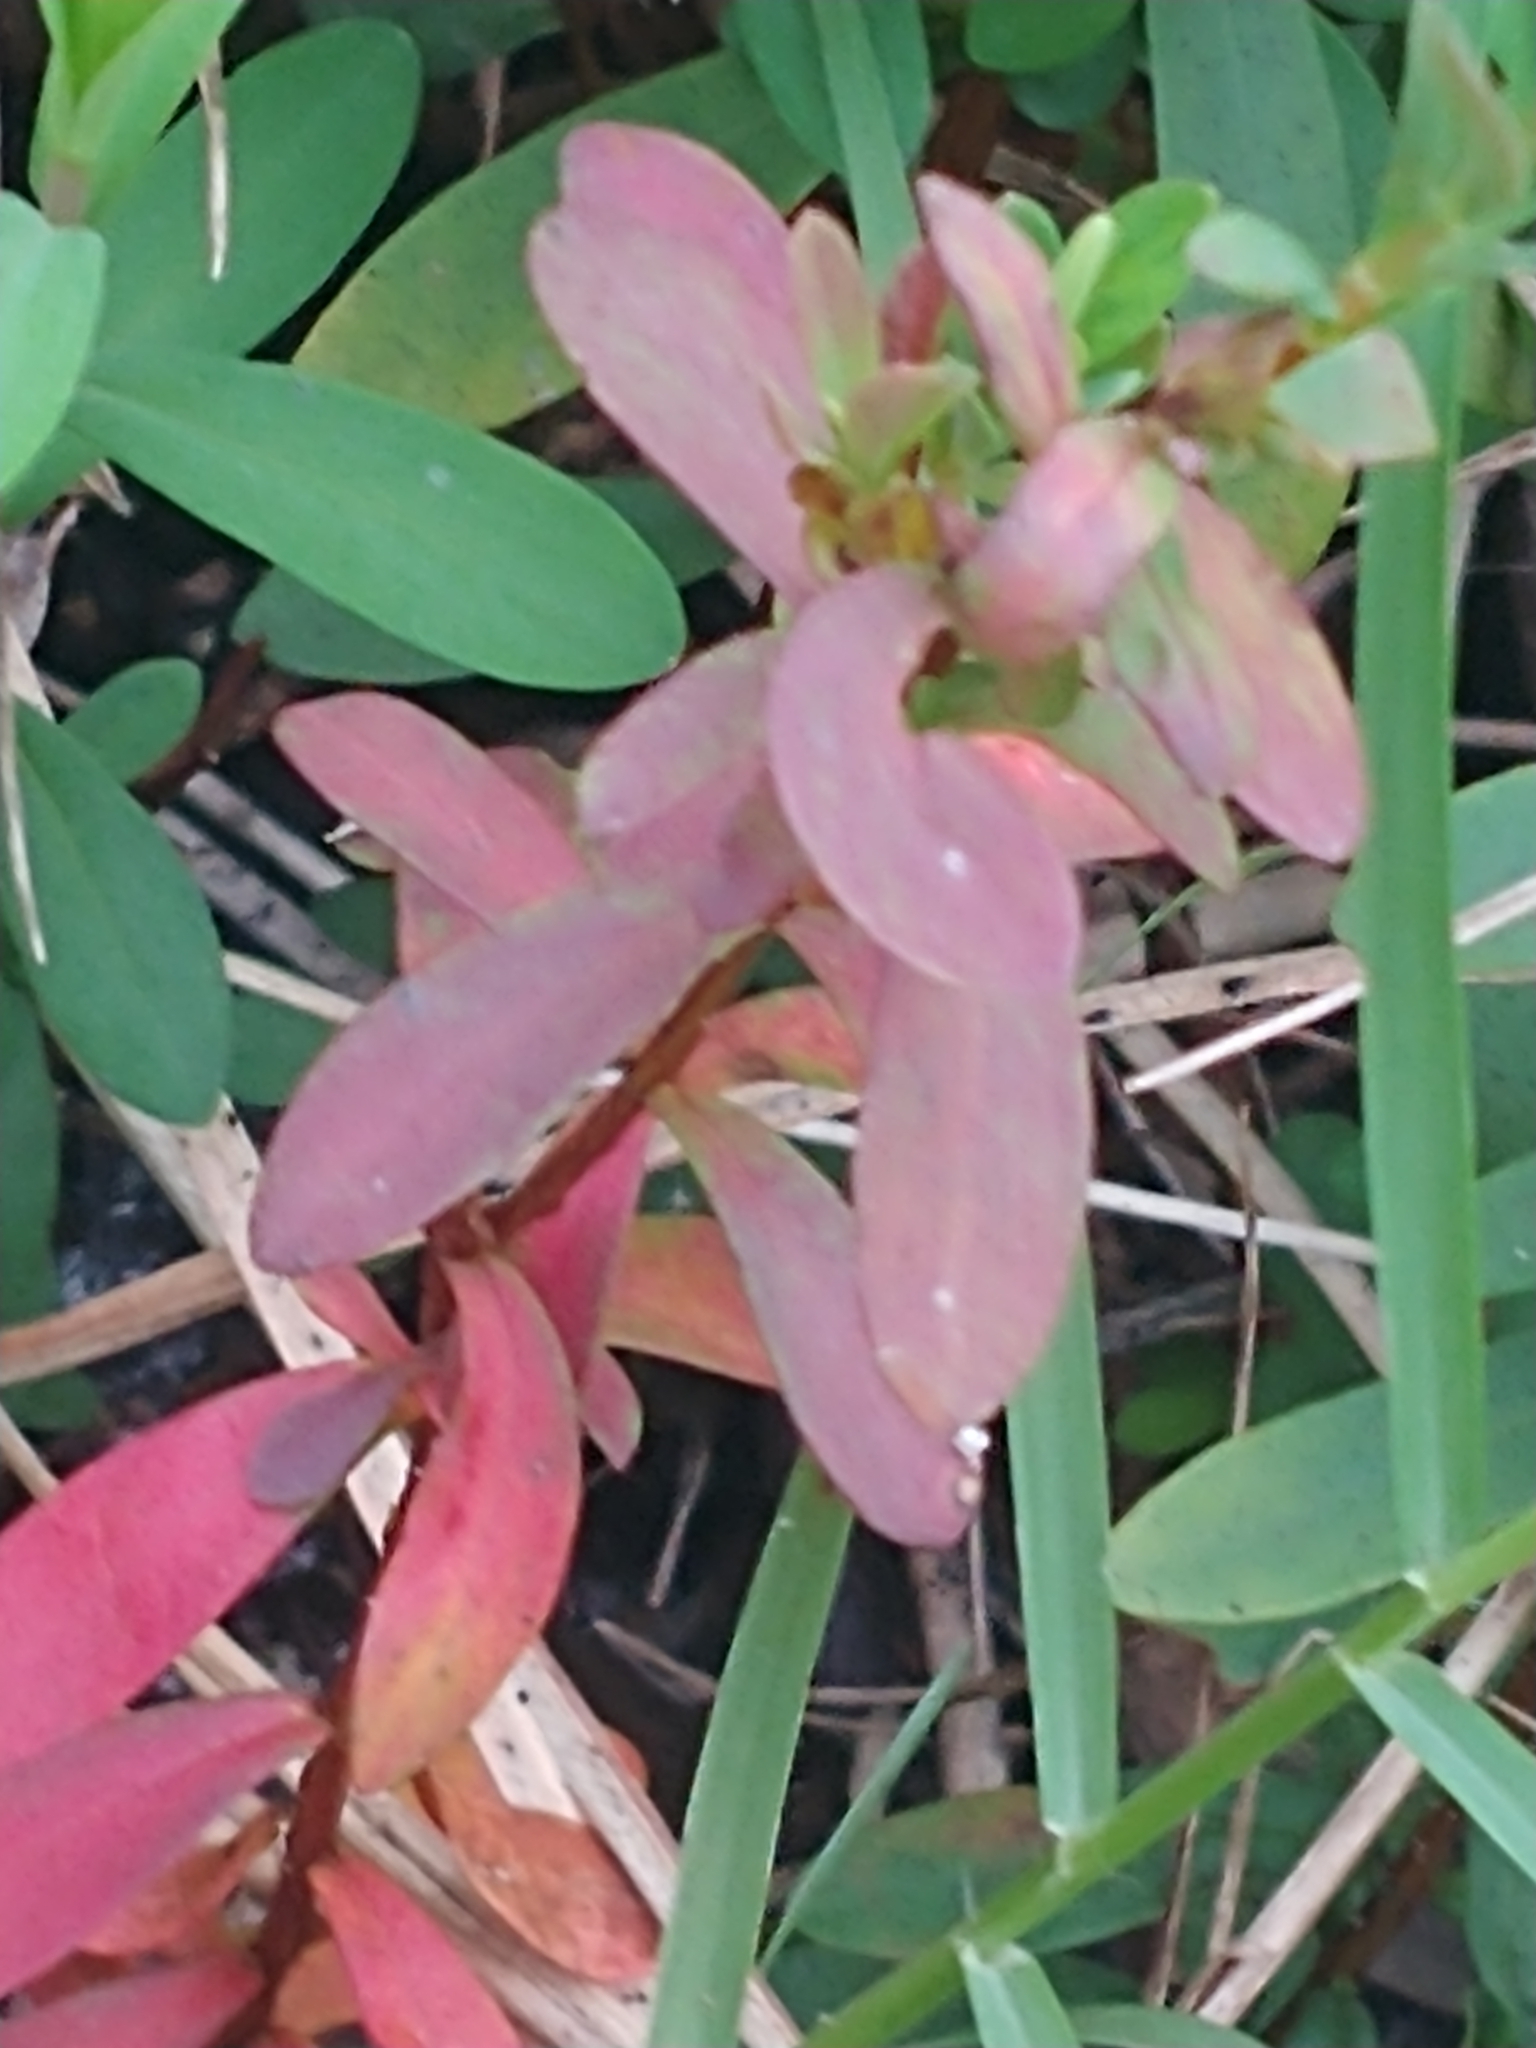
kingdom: Plantae
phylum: Tracheophyta
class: Magnoliopsida
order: Malpighiales
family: Hypericaceae
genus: Hypericum
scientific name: Hypericum hypericoides
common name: St. andrew's cross
